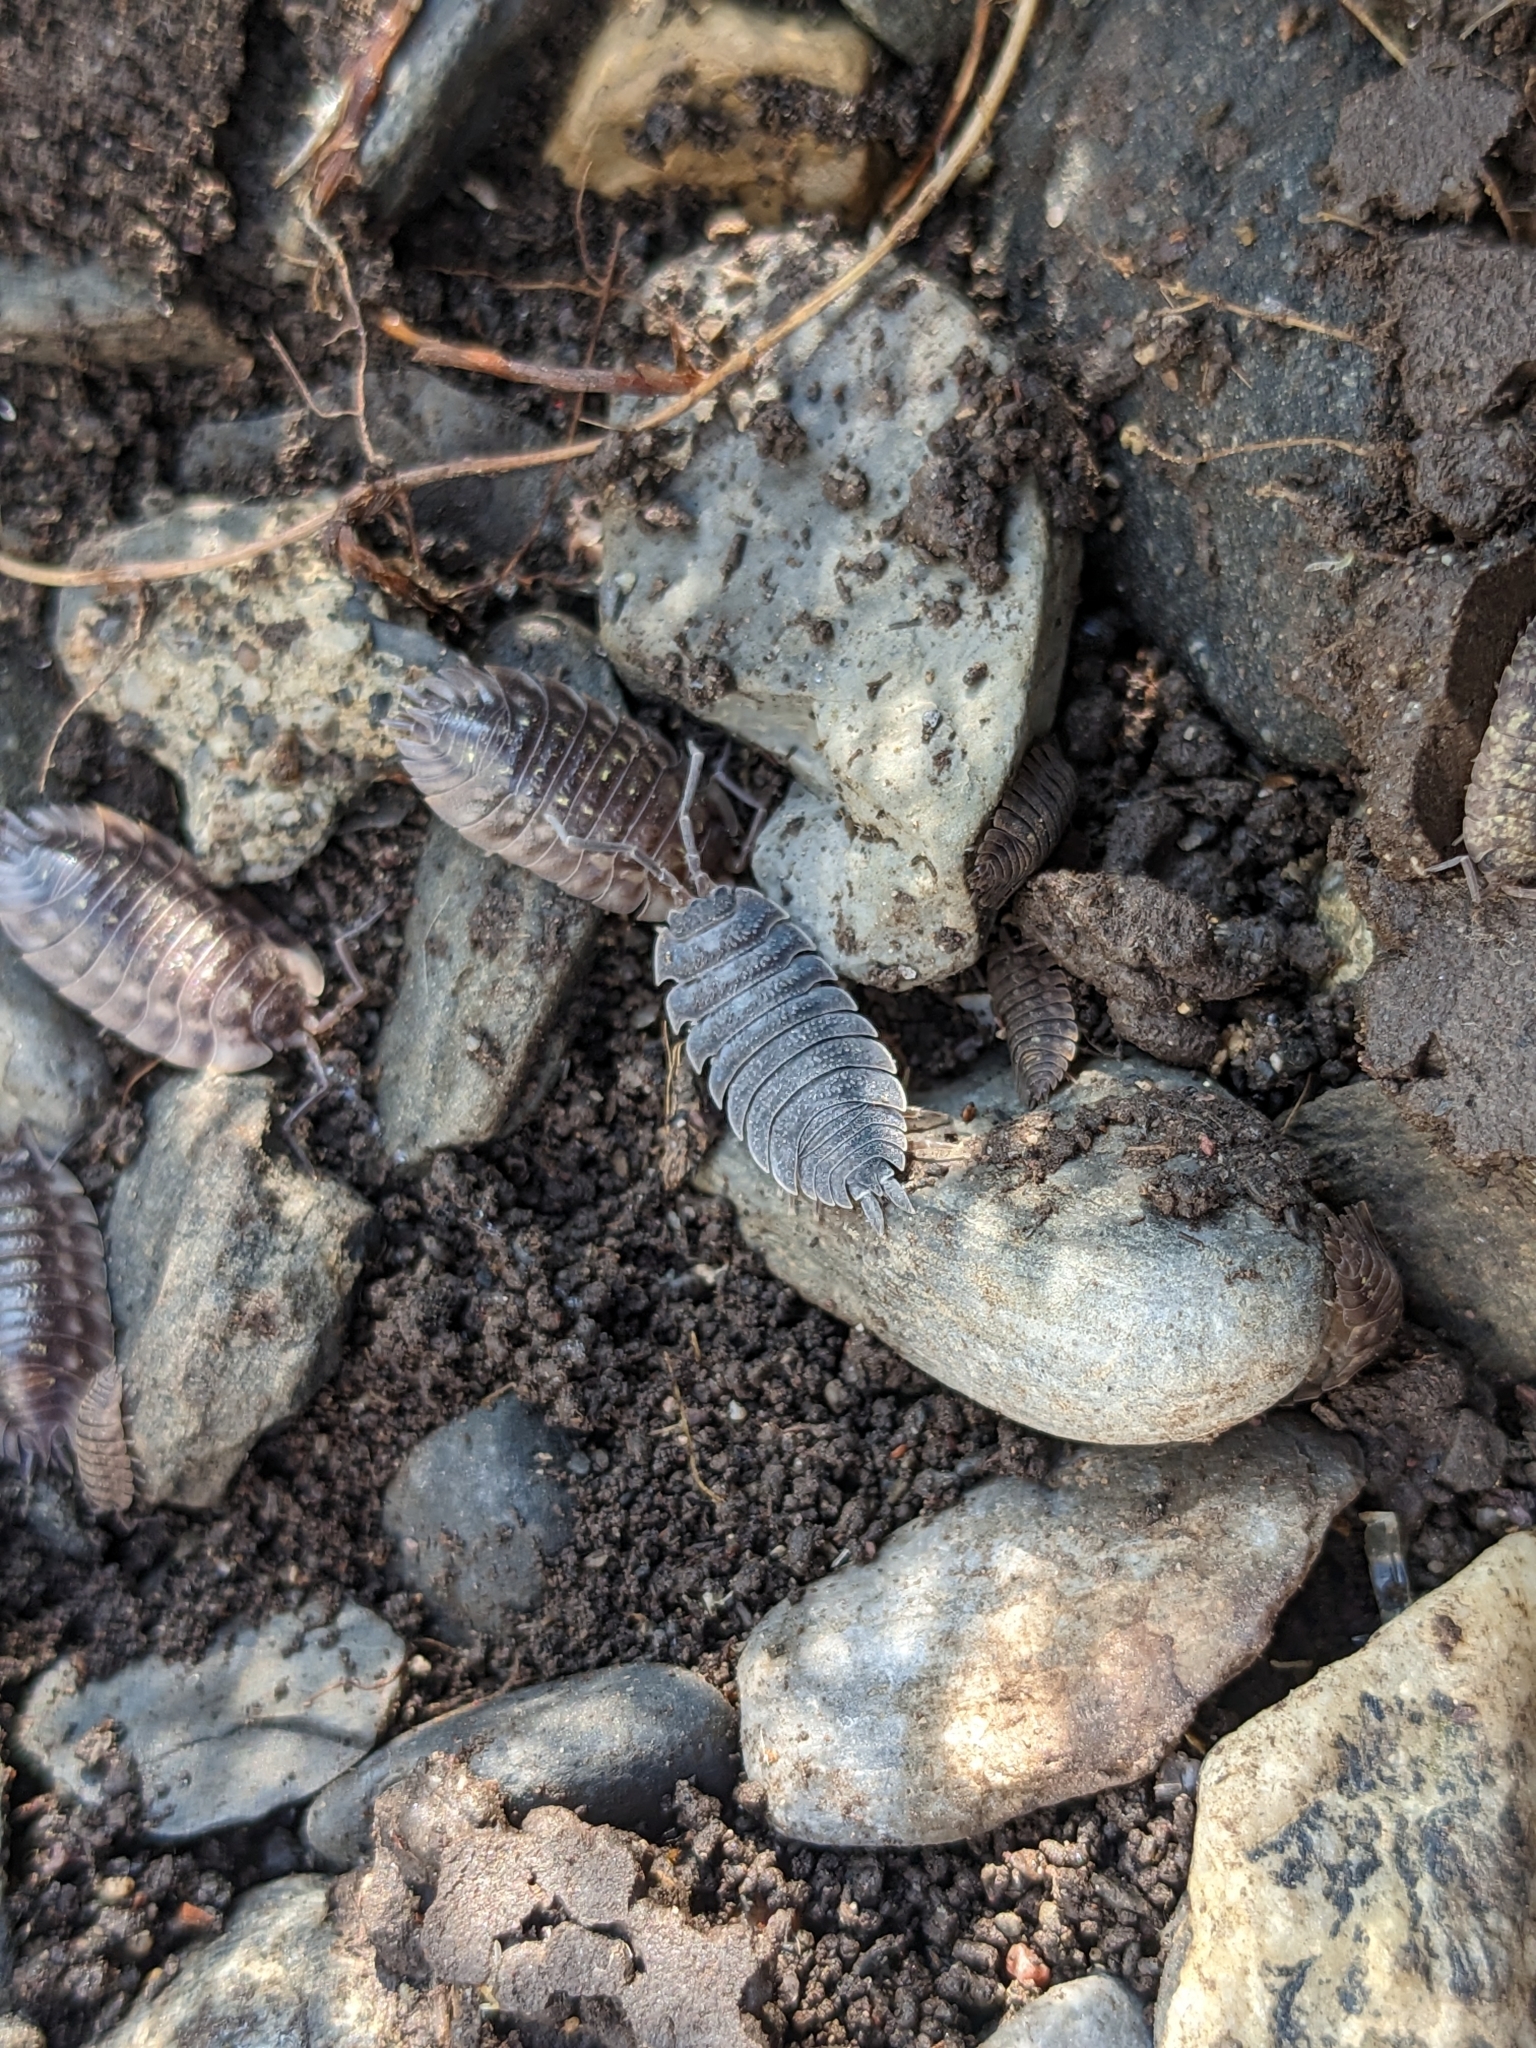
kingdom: Animalia
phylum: Arthropoda
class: Malacostraca
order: Isopoda
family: Porcellionidae
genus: Porcellio
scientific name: Porcellio scaber
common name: Common rough woodlouse
